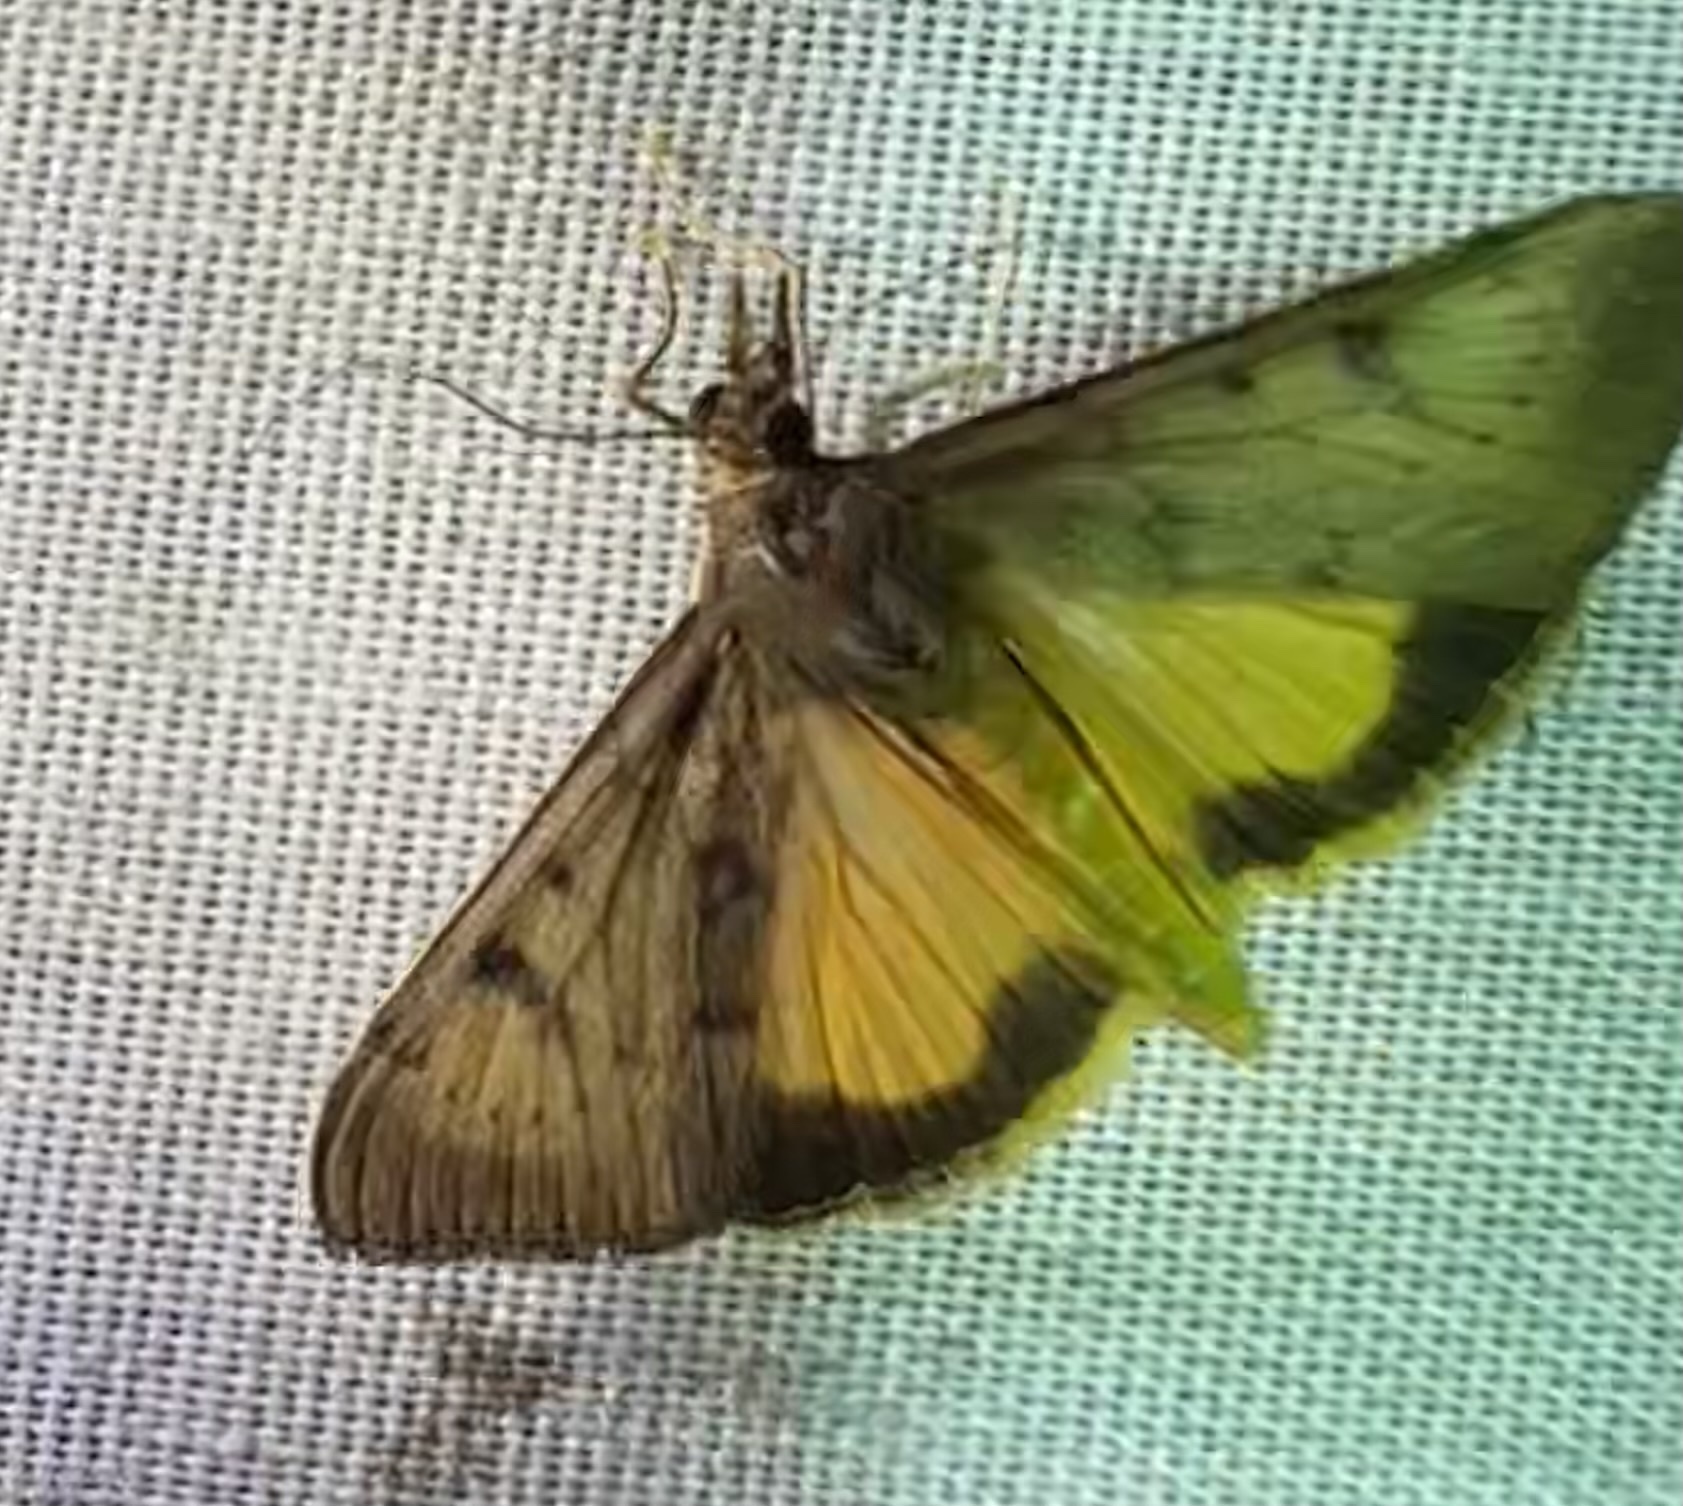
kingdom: Animalia
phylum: Arthropoda
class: Insecta
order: Lepidoptera
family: Crambidae
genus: Uresiphita
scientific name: Uresiphita gilvata
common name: Yellow-underwing pearl
